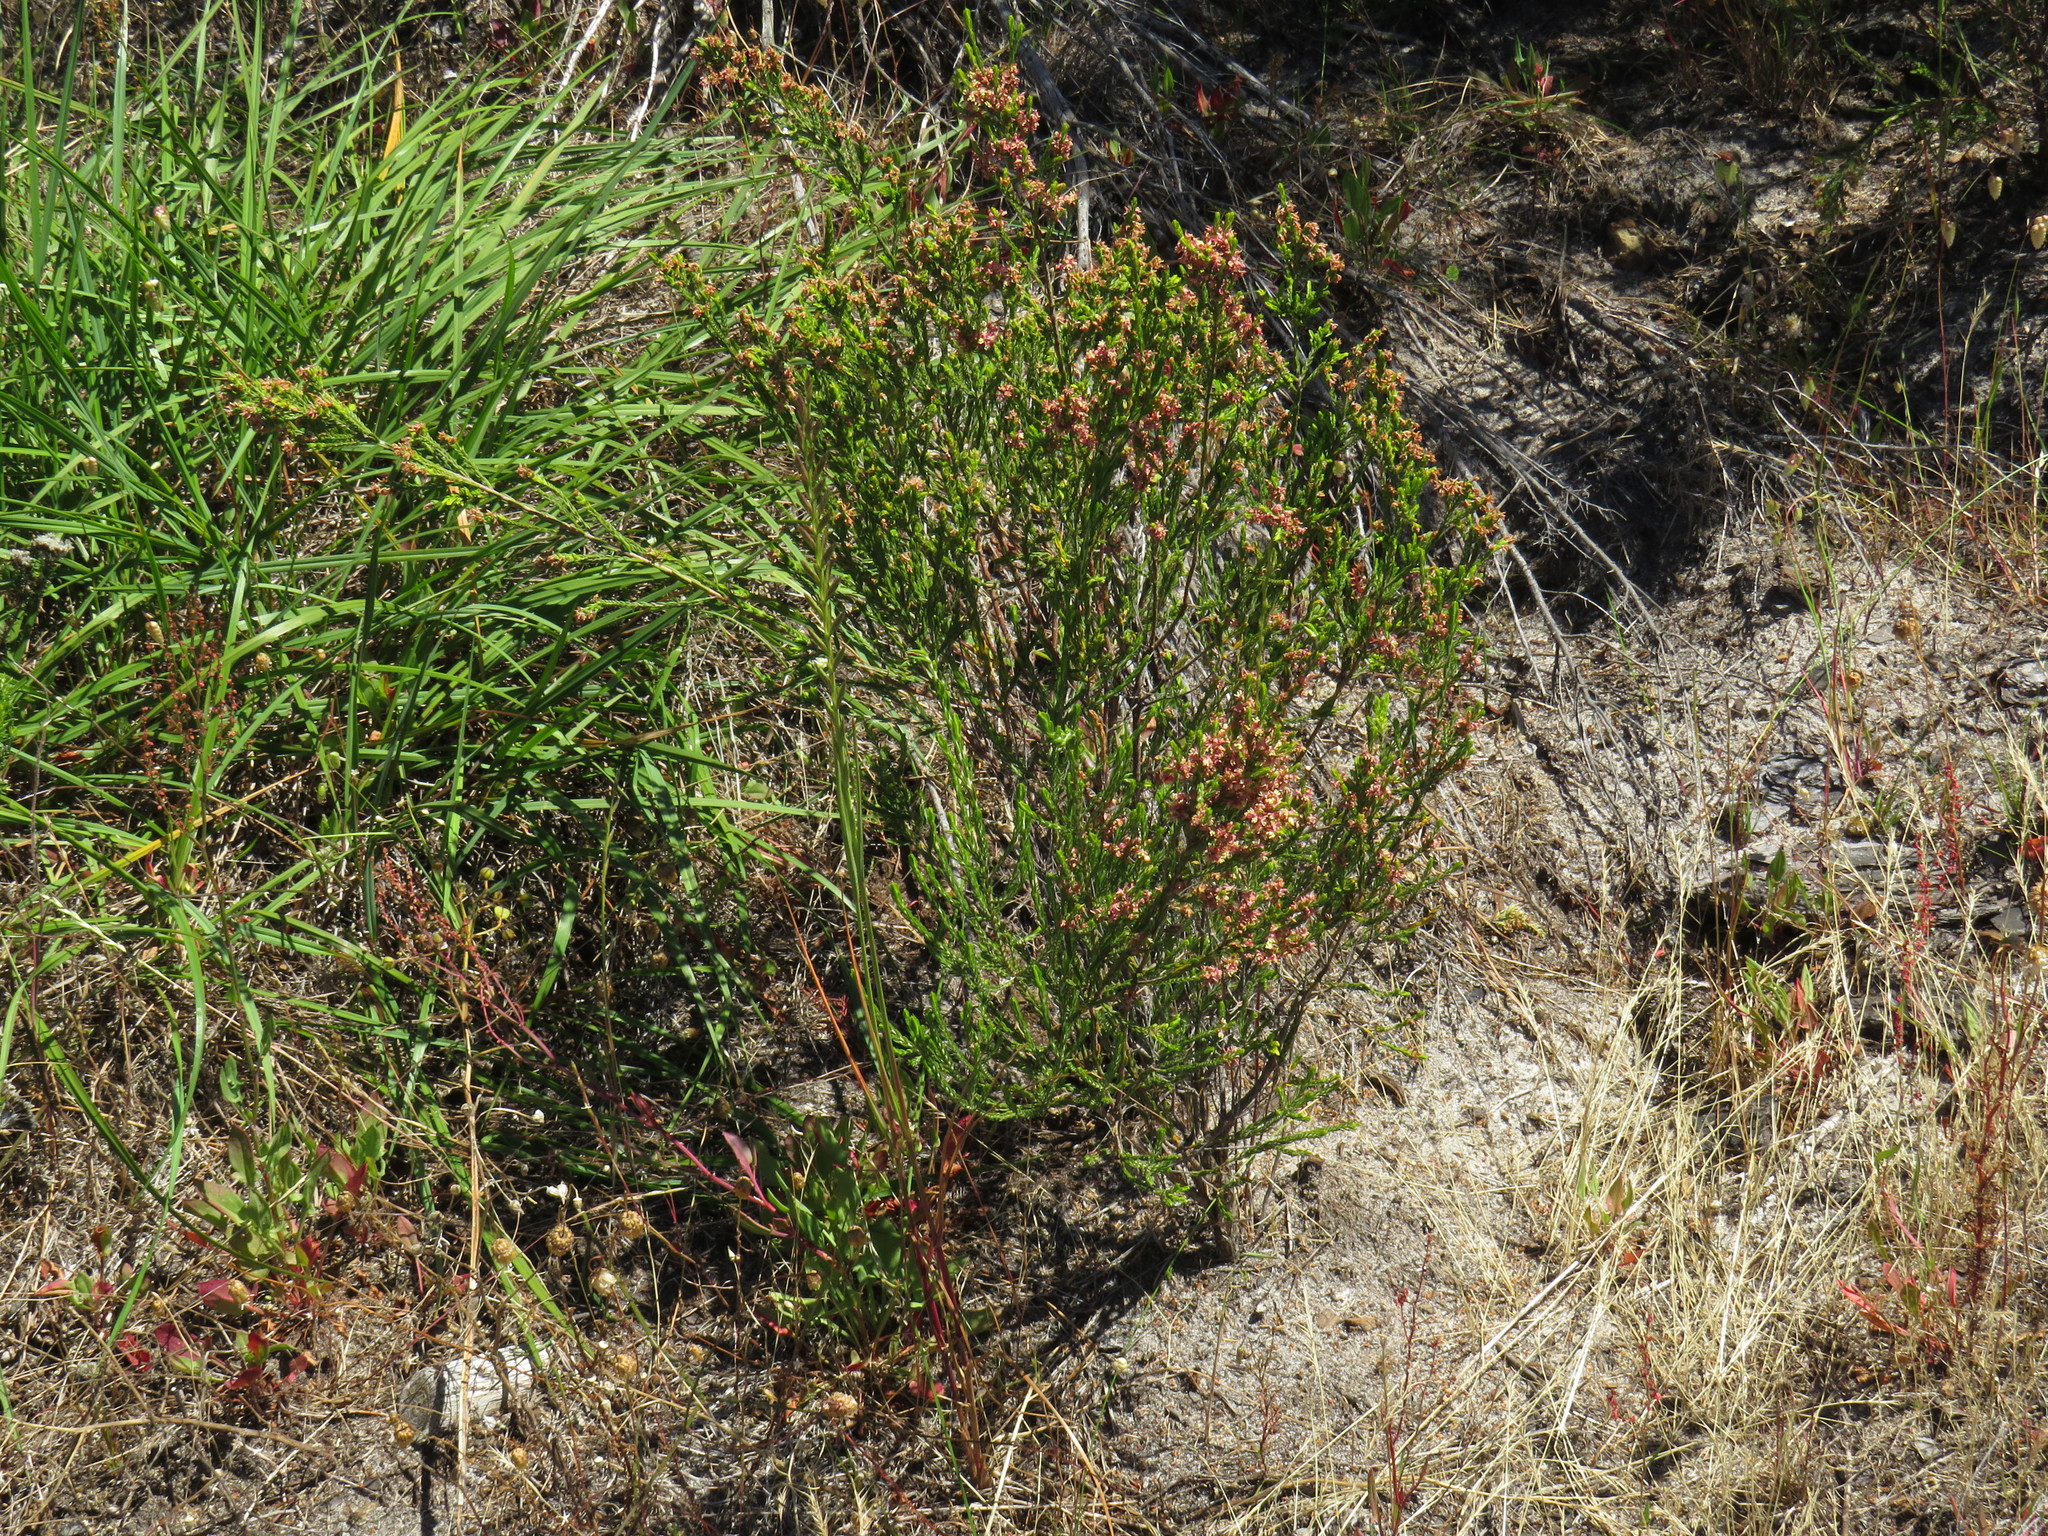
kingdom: Plantae
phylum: Tracheophyta
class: Magnoliopsida
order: Malvales
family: Thymelaeaceae
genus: Passerina
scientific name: Passerina corymbosa
